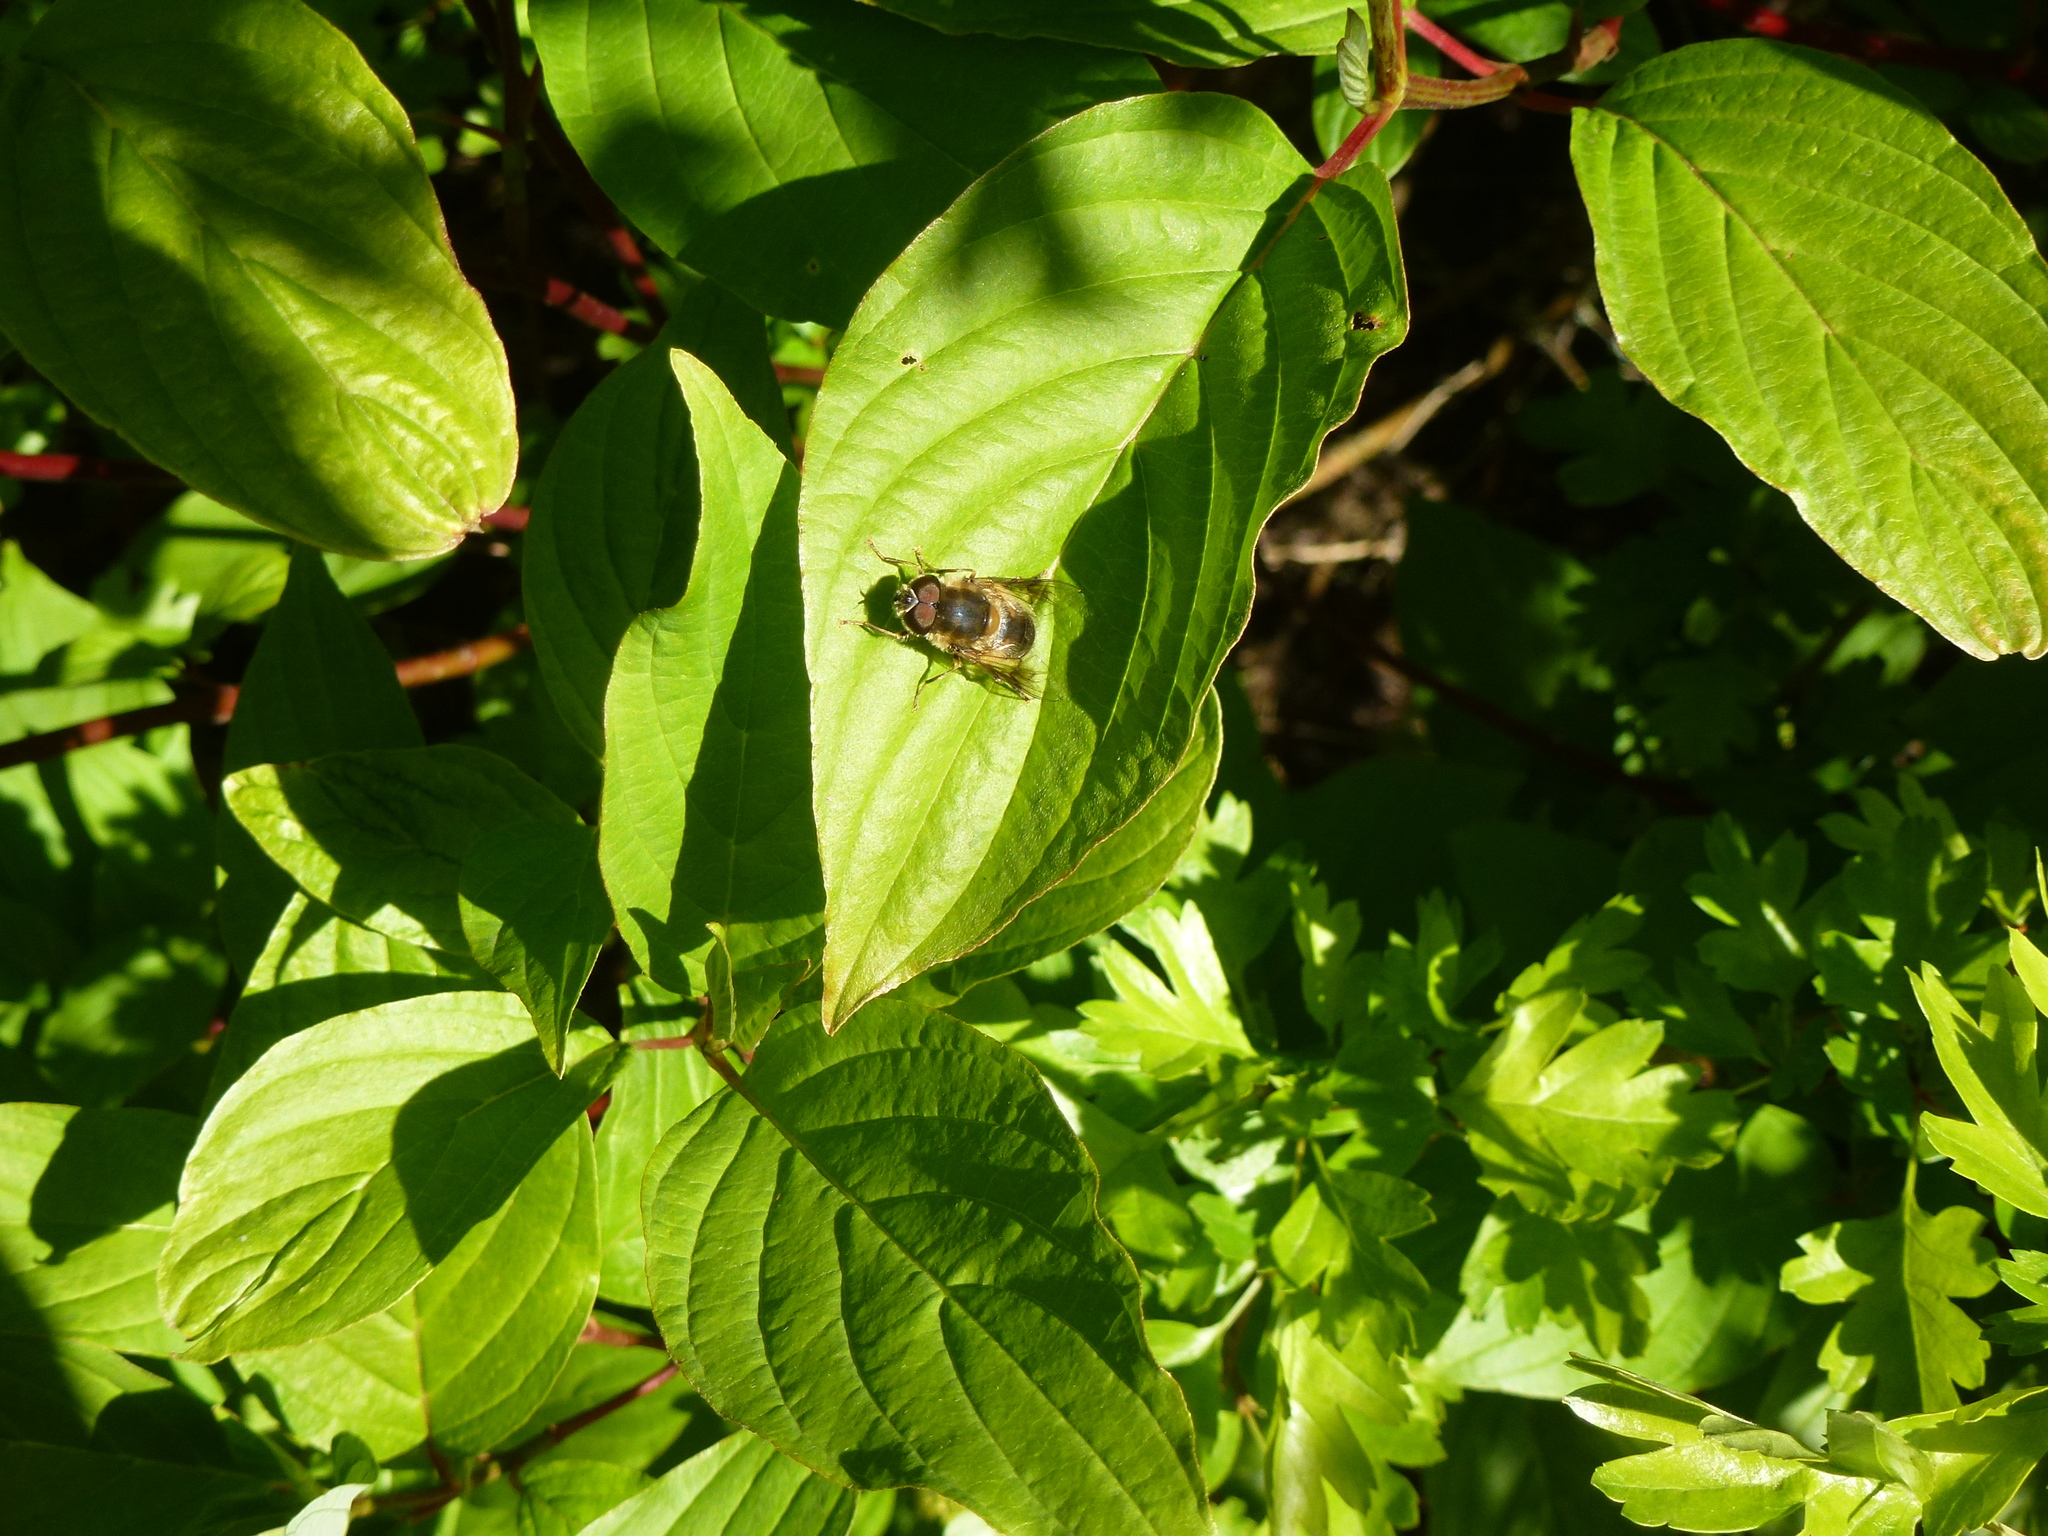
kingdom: Animalia
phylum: Arthropoda
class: Insecta
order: Diptera
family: Syrphidae
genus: Eristalis
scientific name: Eristalis pertinax
